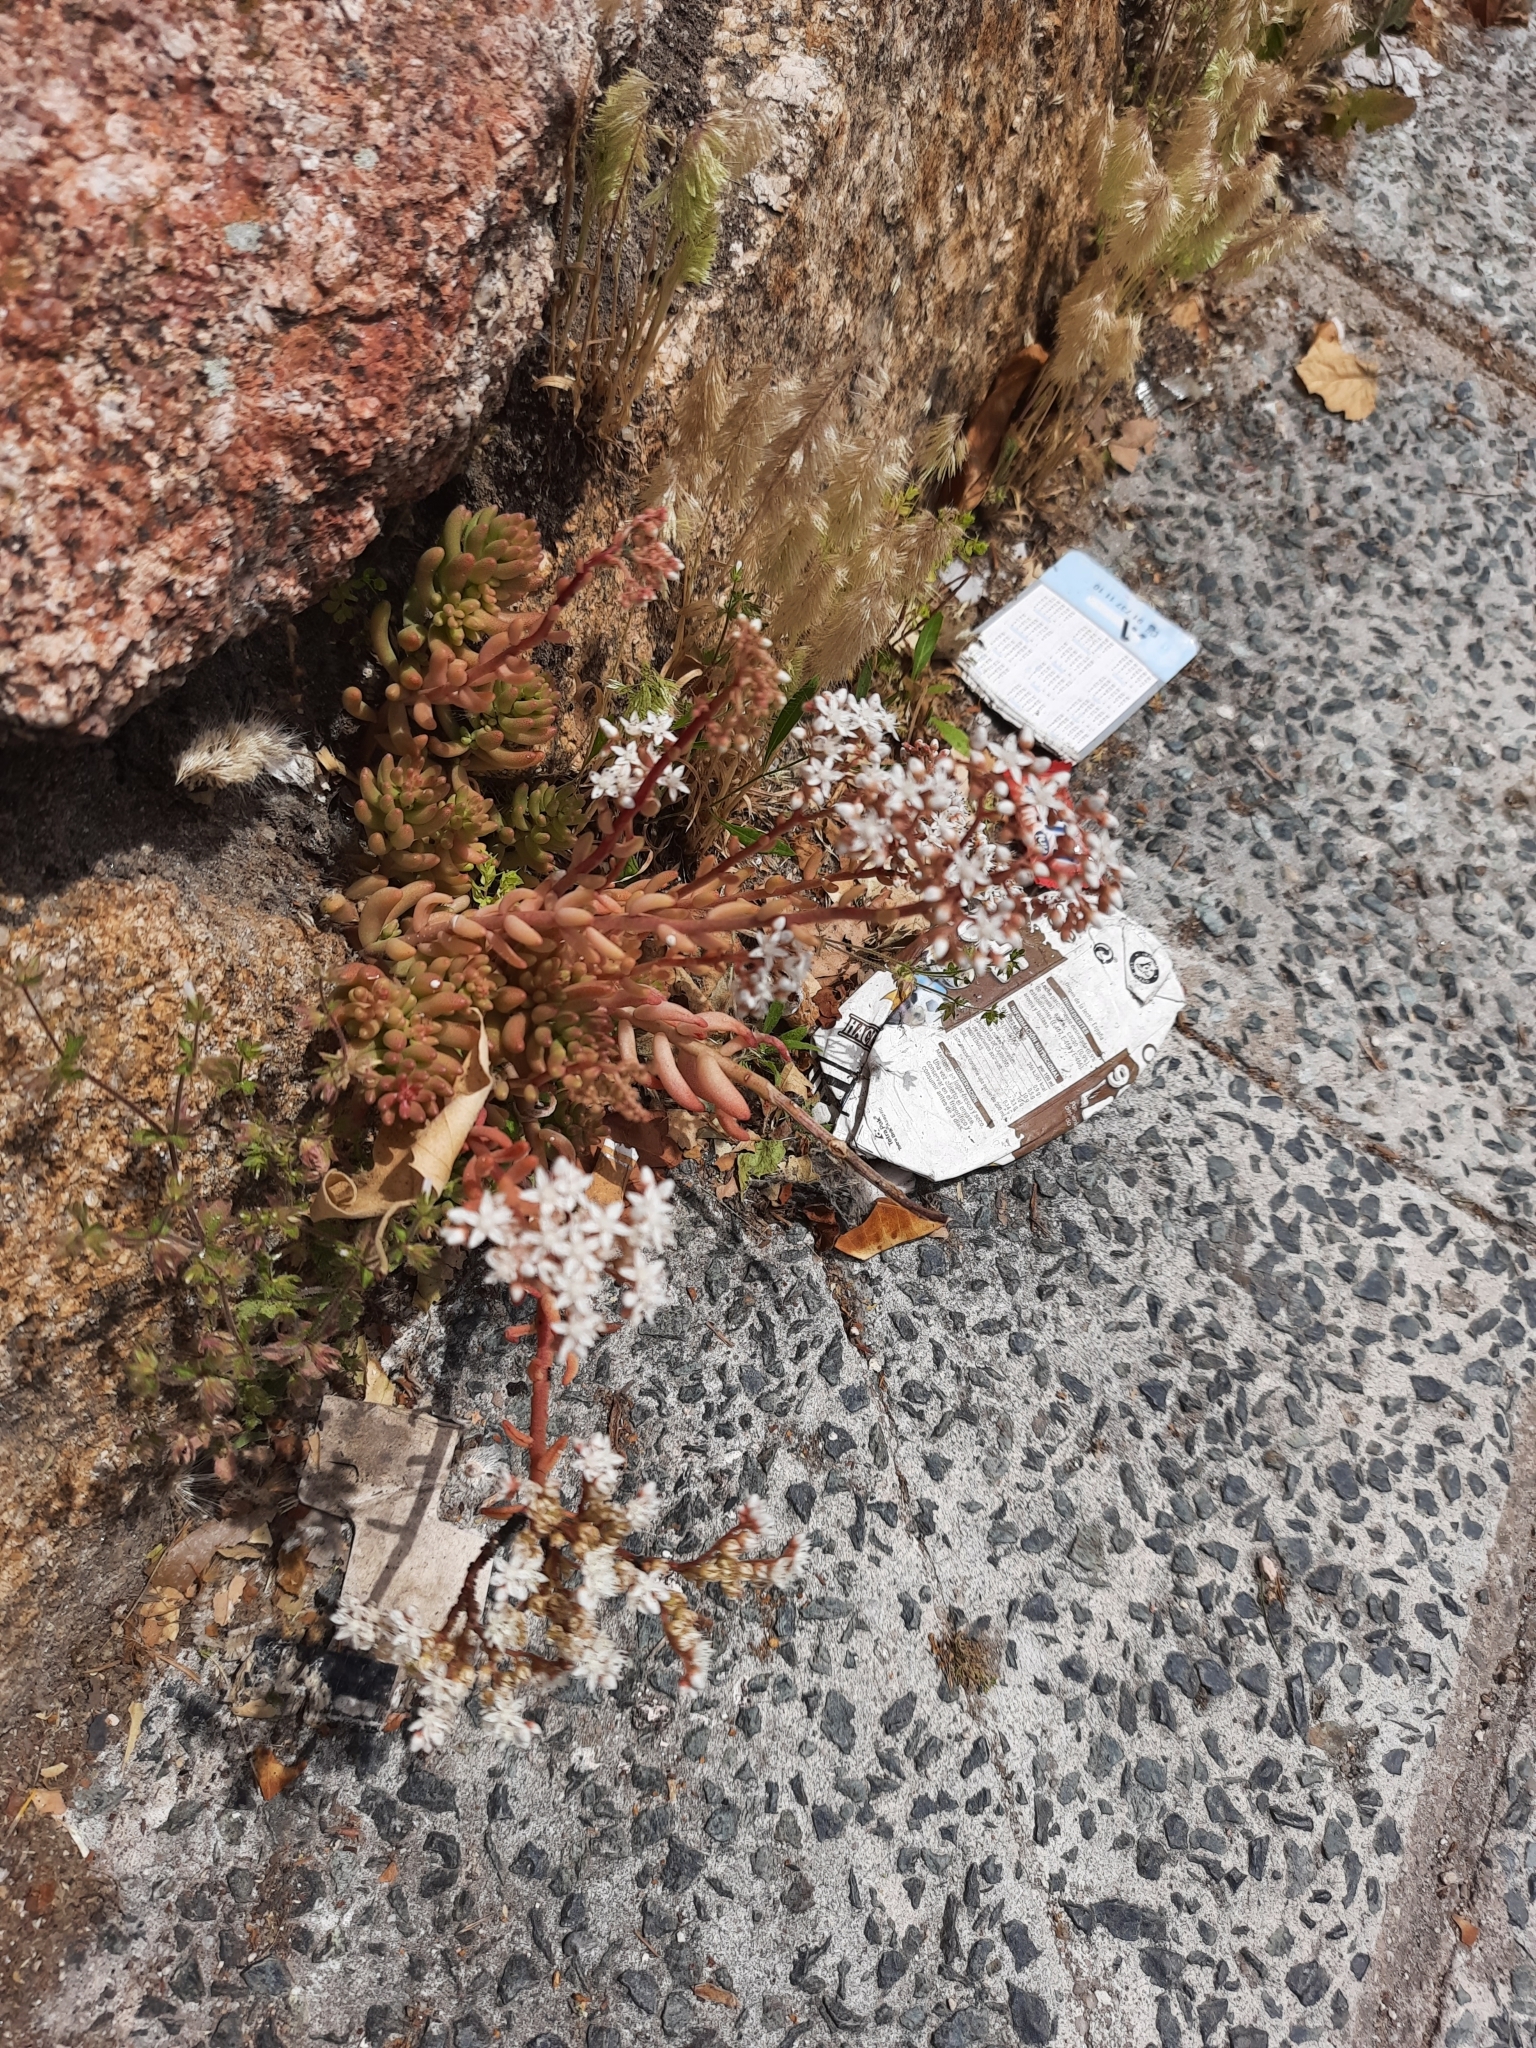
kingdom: Plantae
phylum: Tracheophyta
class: Magnoliopsida
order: Saxifragales
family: Crassulaceae
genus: Sedum
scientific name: Sedum album
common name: White stonecrop
